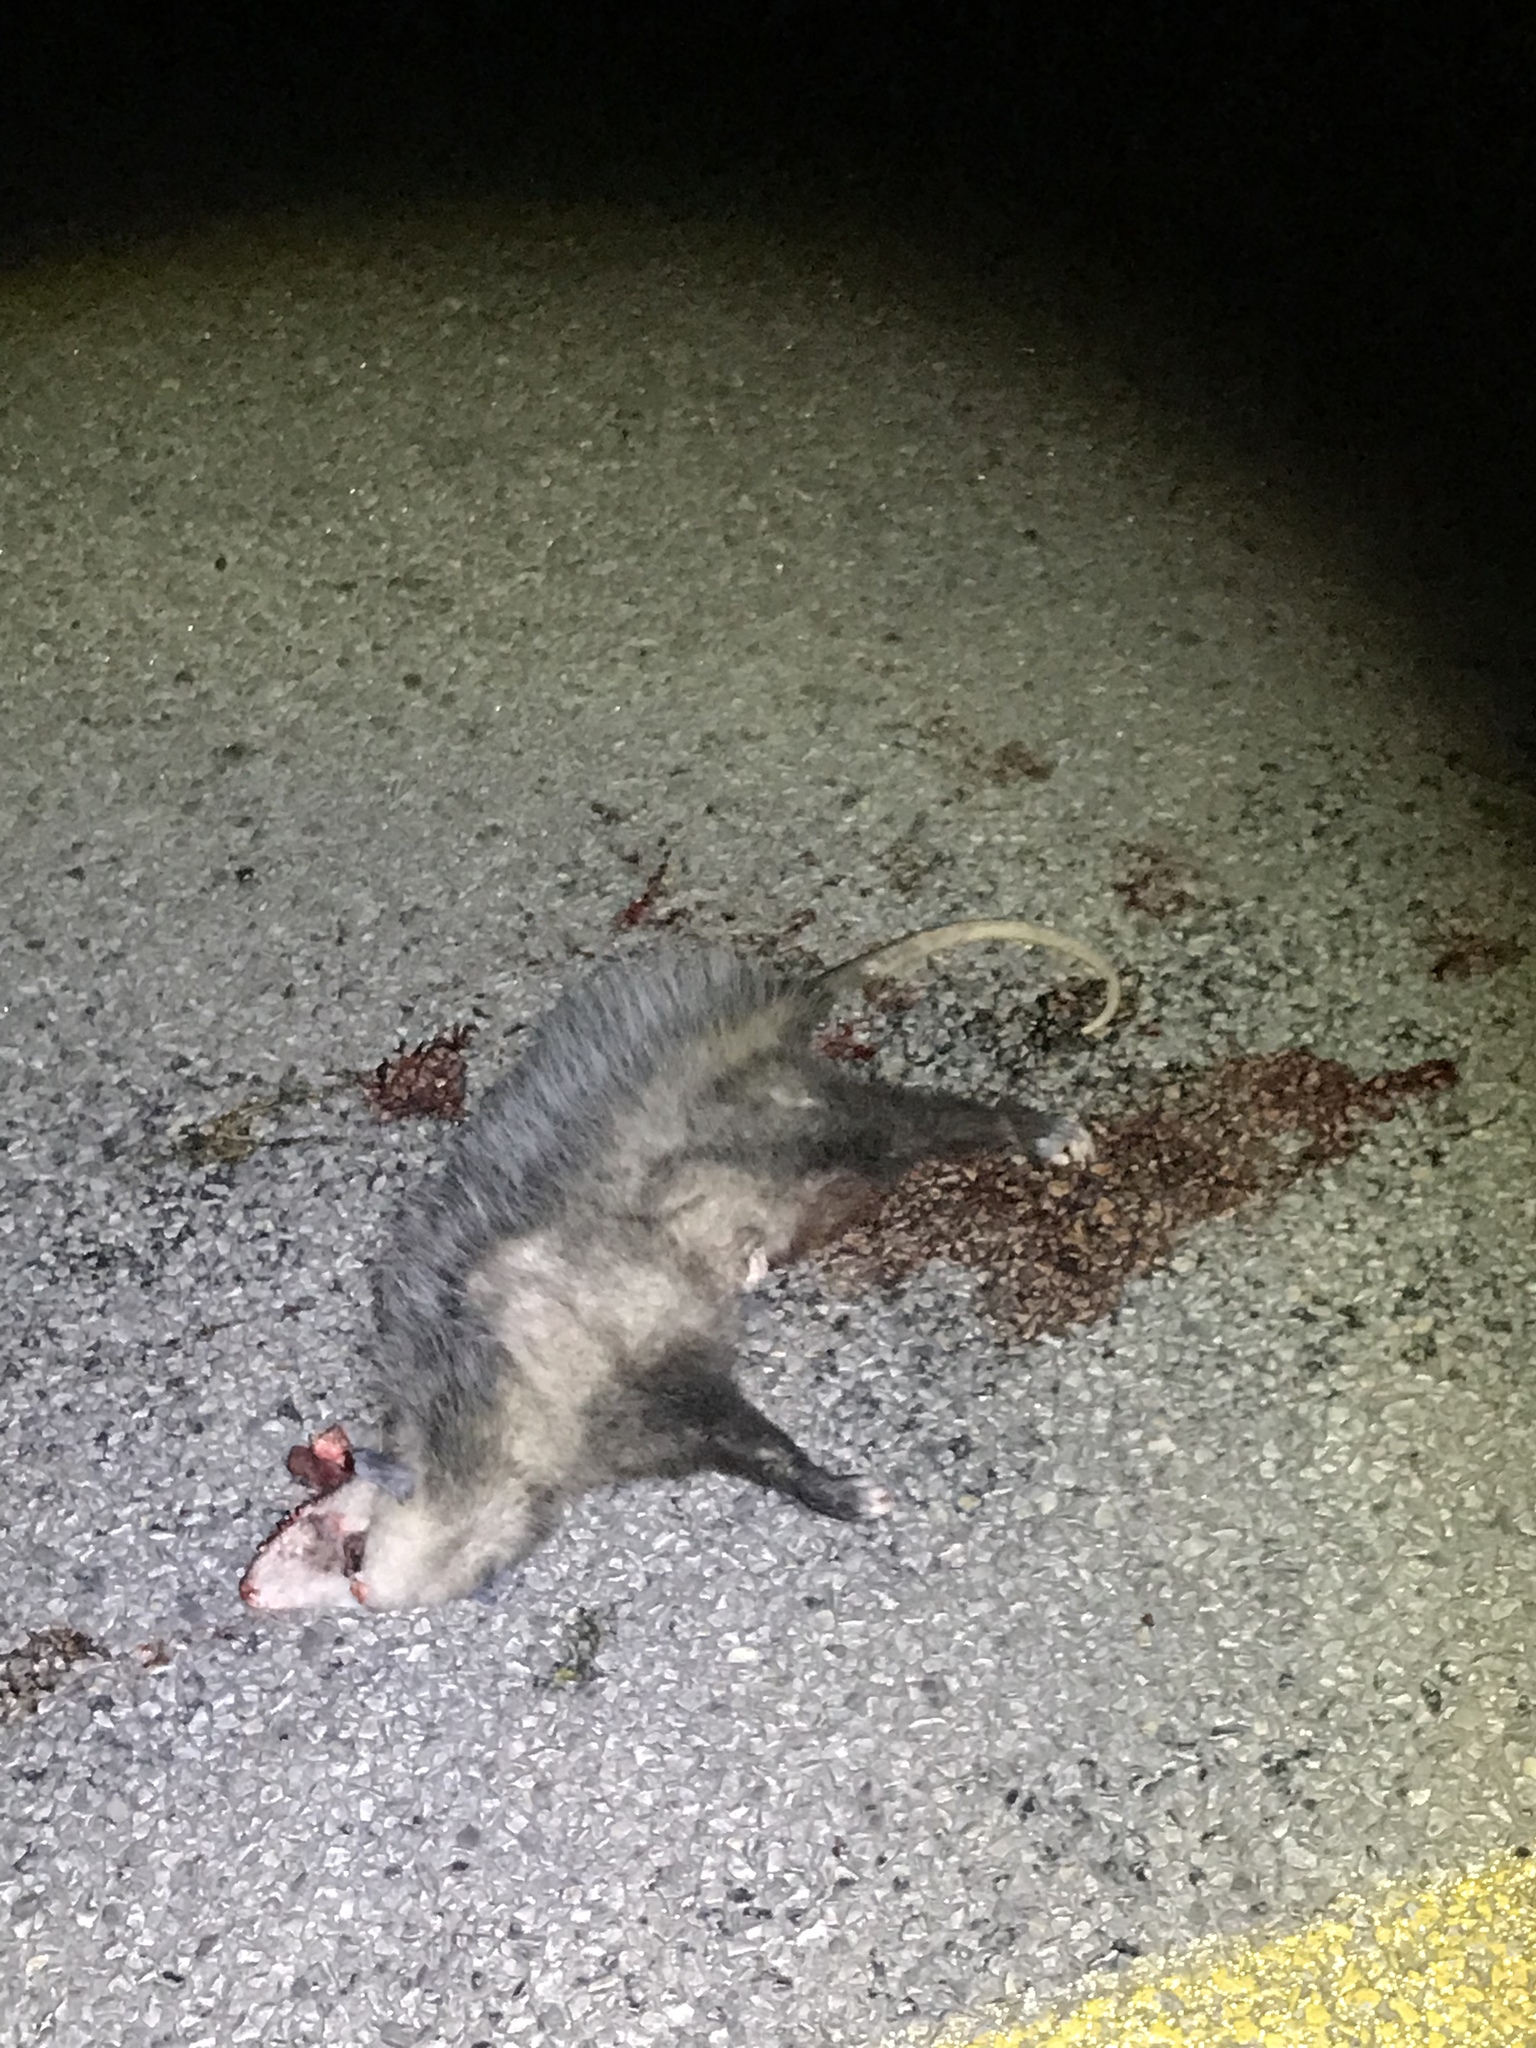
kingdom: Animalia
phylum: Chordata
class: Mammalia
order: Didelphimorphia
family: Didelphidae
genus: Didelphis
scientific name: Didelphis virginiana
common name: Virginia opossum
